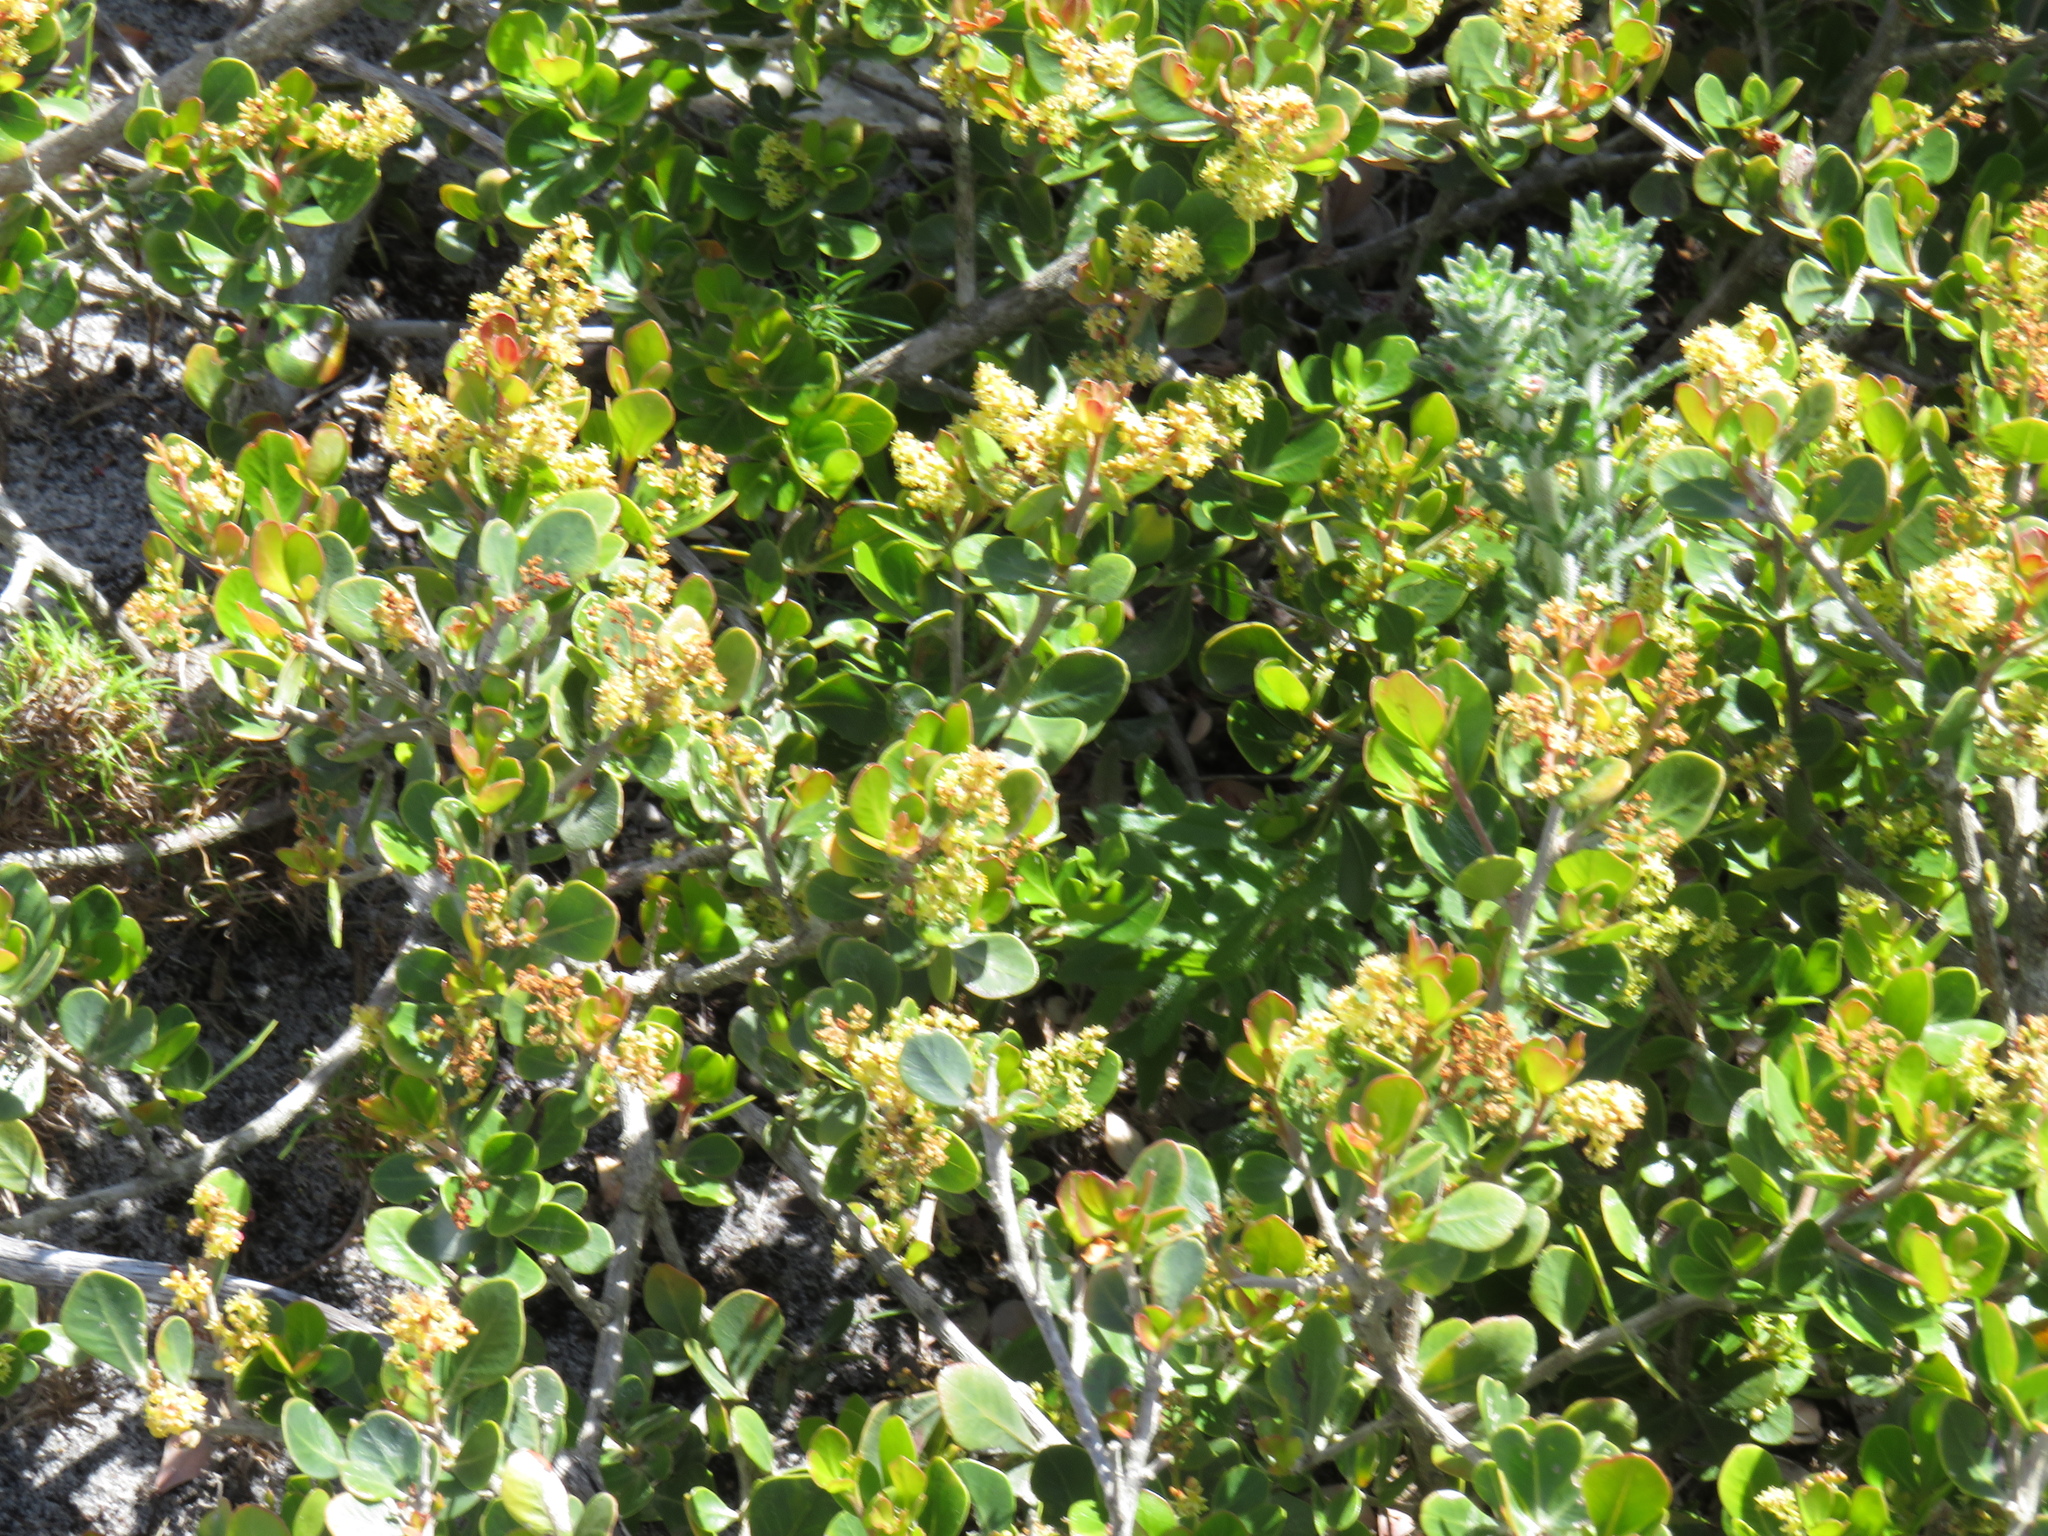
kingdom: Plantae
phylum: Tracheophyta
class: Magnoliopsida
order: Sapindales
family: Anacardiaceae
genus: Searsia
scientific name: Searsia lucida
